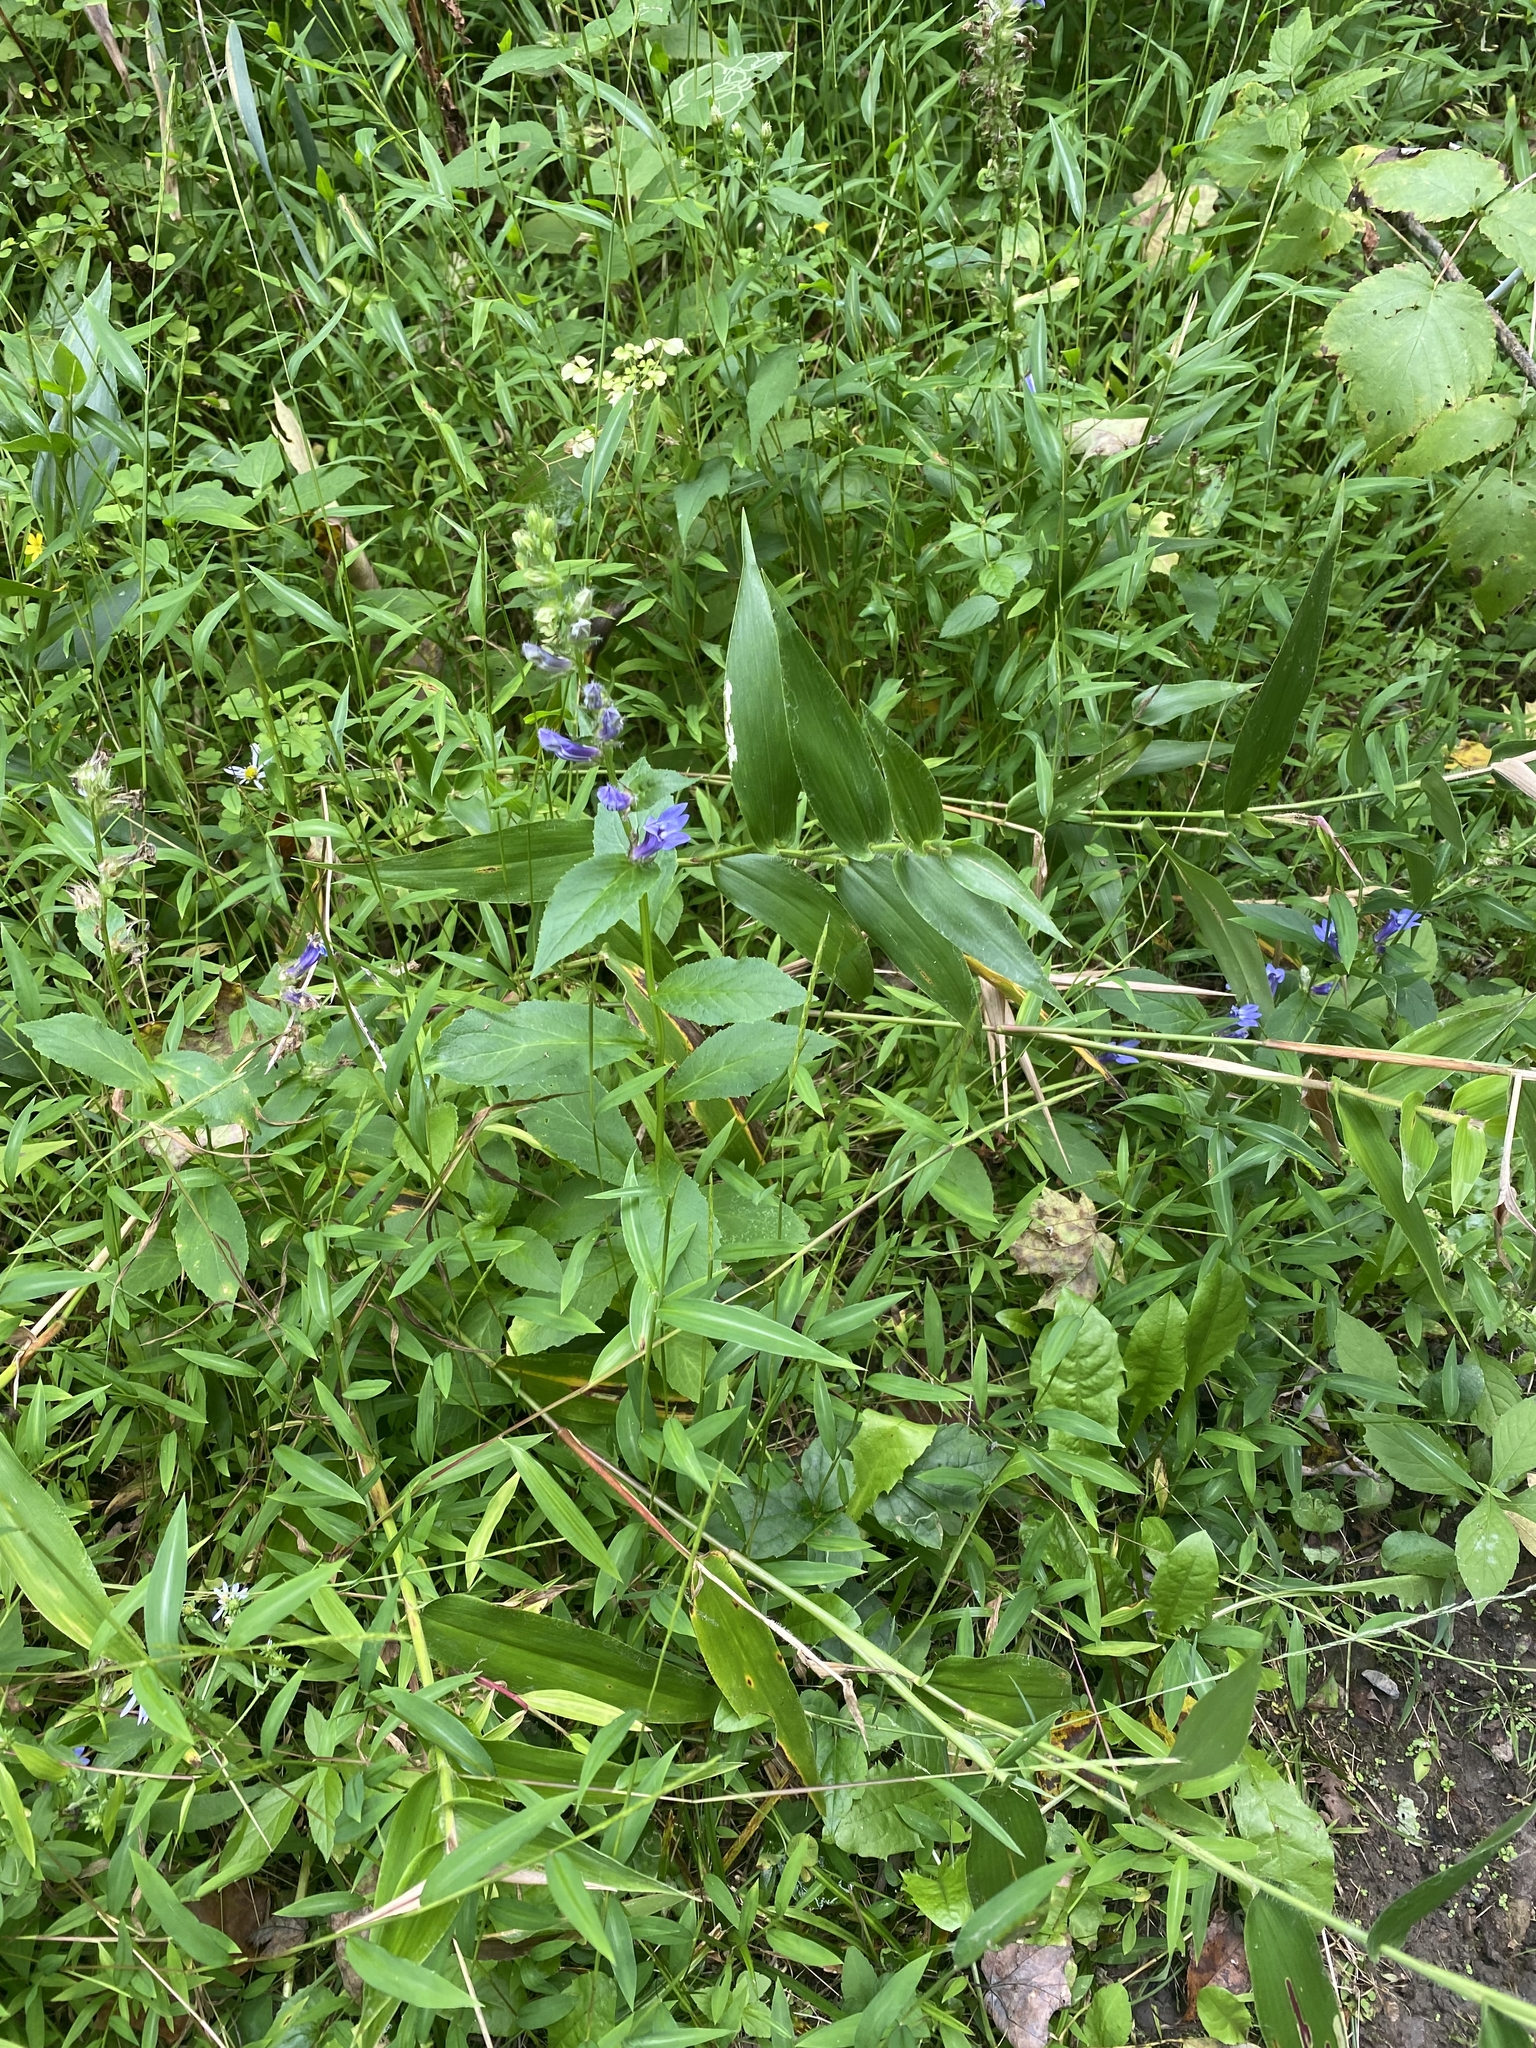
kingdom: Plantae
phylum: Tracheophyta
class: Magnoliopsida
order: Asterales
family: Campanulaceae
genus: Lobelia
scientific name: Lobelia siphilitica
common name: Great lobelia
